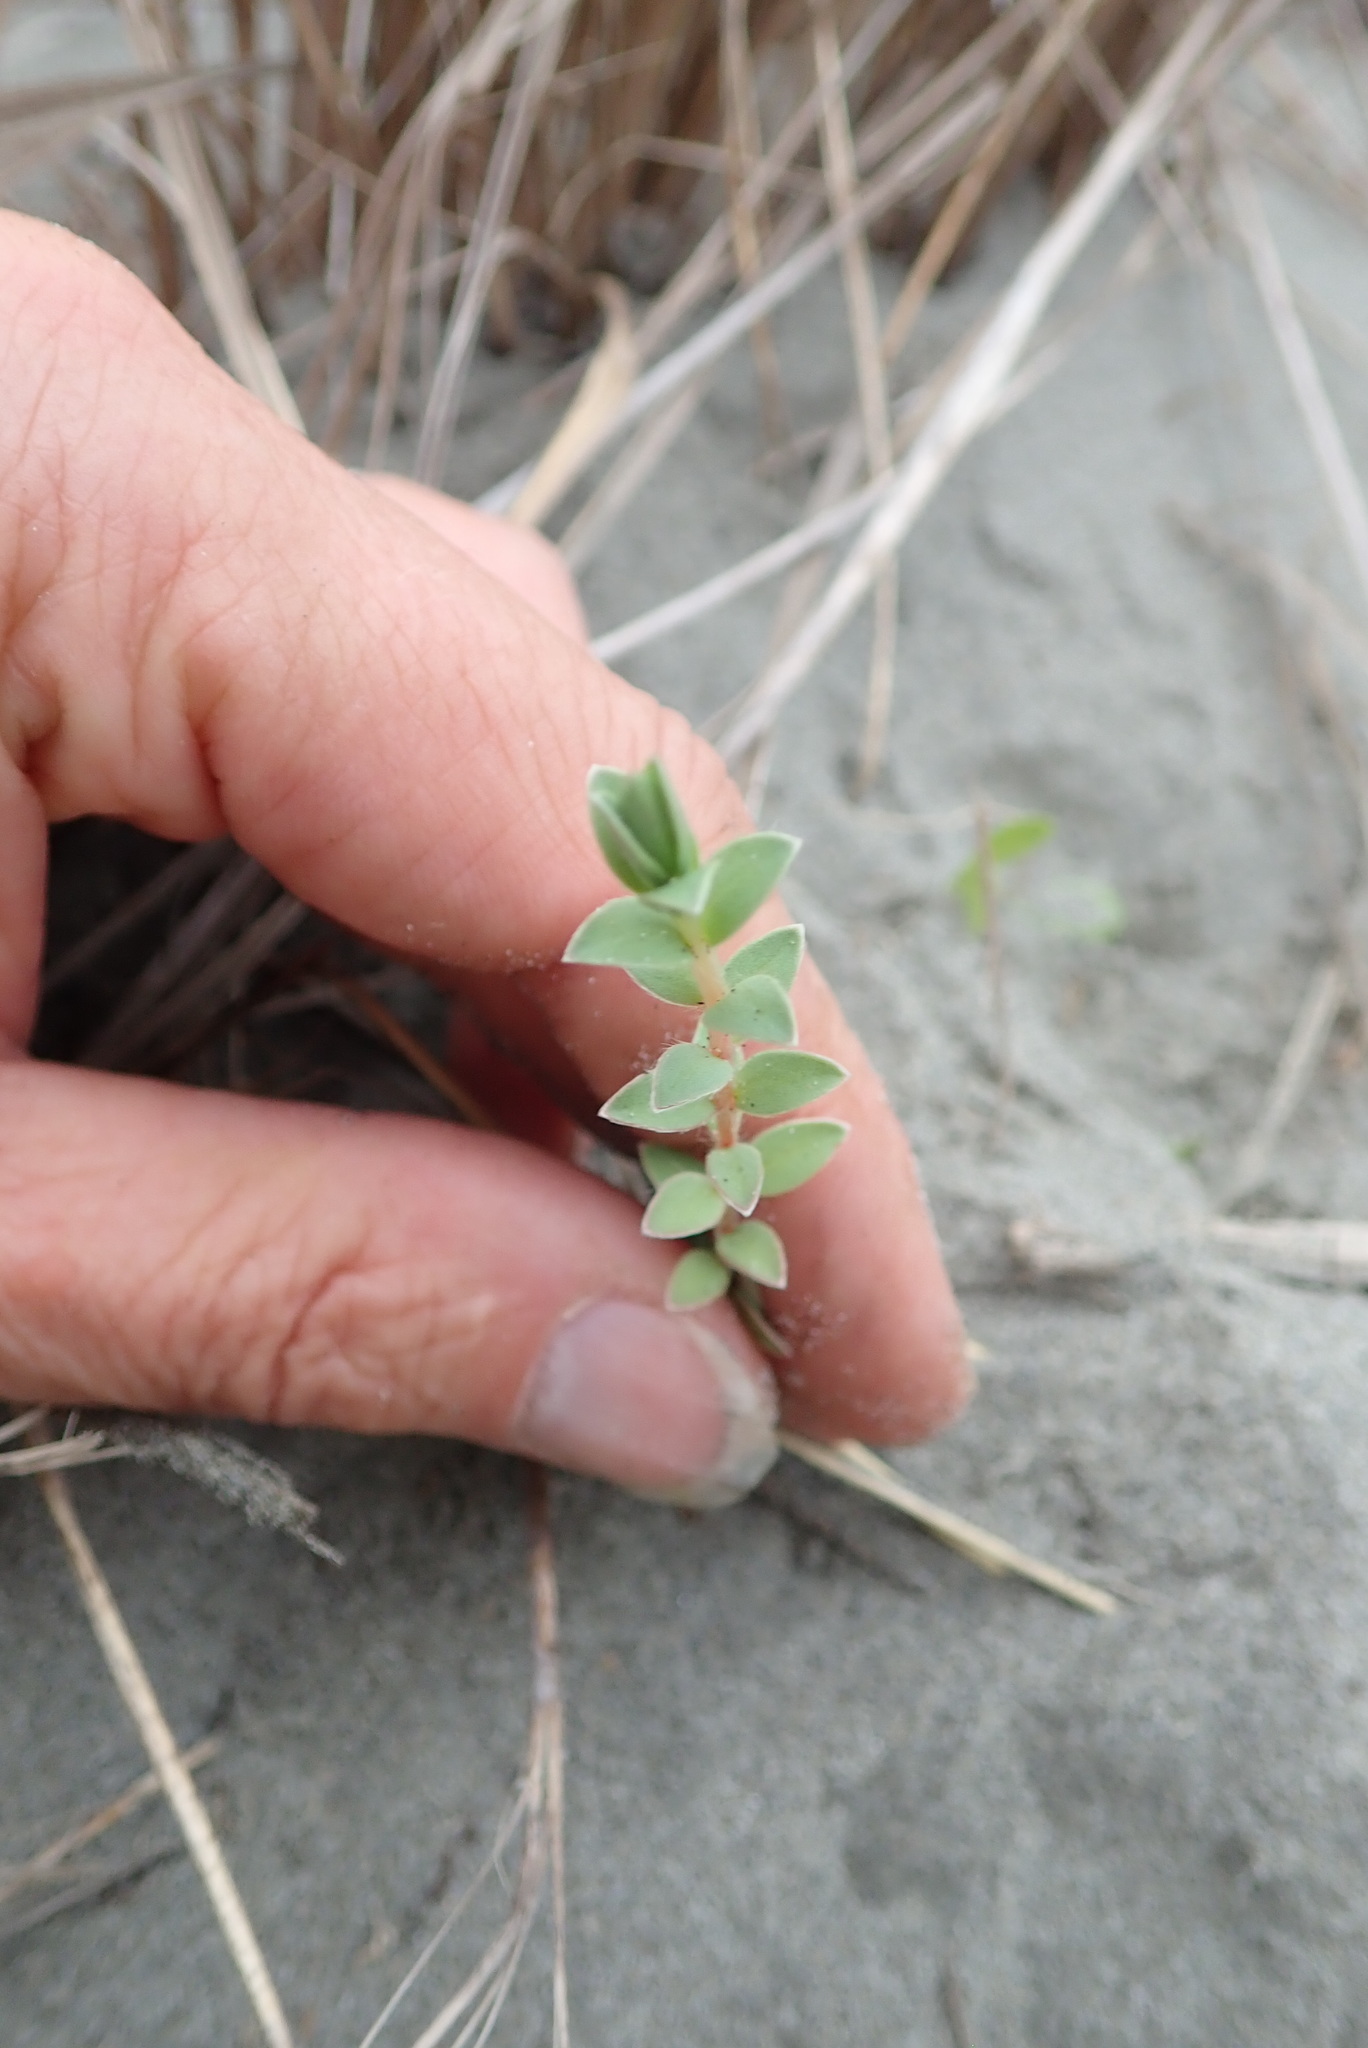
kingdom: Plantae
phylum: Tracheophyta
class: Magnoliopsida
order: Malvales
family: Thymelaeaceae
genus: Pimelea
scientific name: Pimelea villosa
